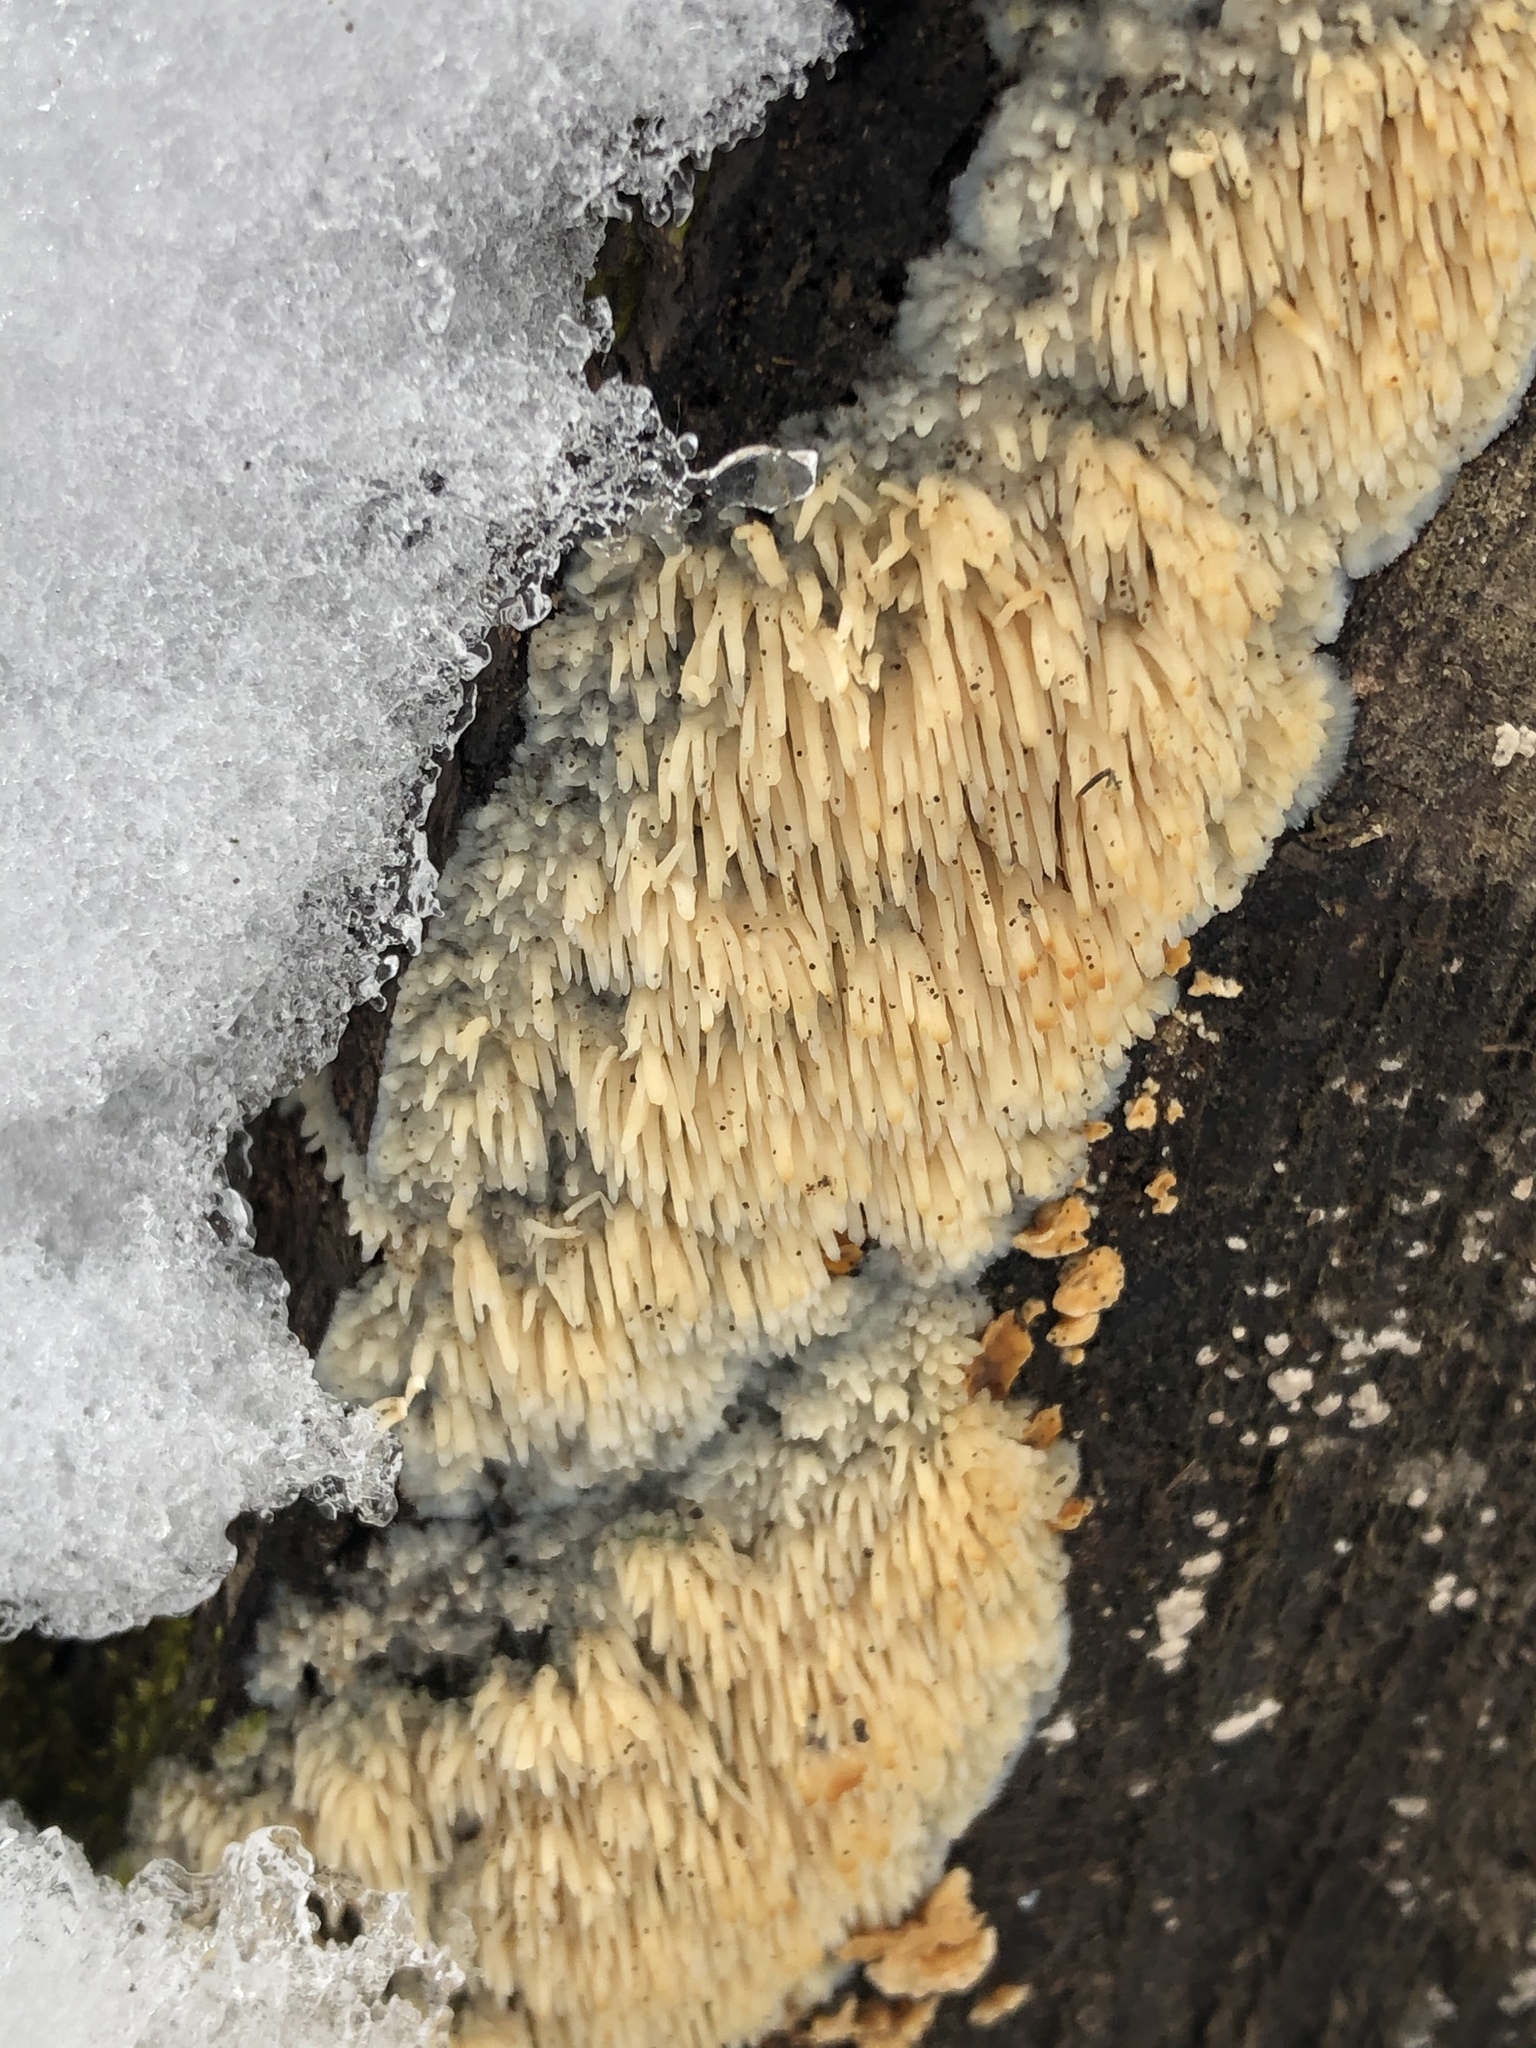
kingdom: Fungi
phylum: Basidiomycota
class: Agaricomycetes
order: Agaricales
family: Radulomycetaceae
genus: Radulomyces
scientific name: Radulomyces copelandii
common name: Asian beauty
